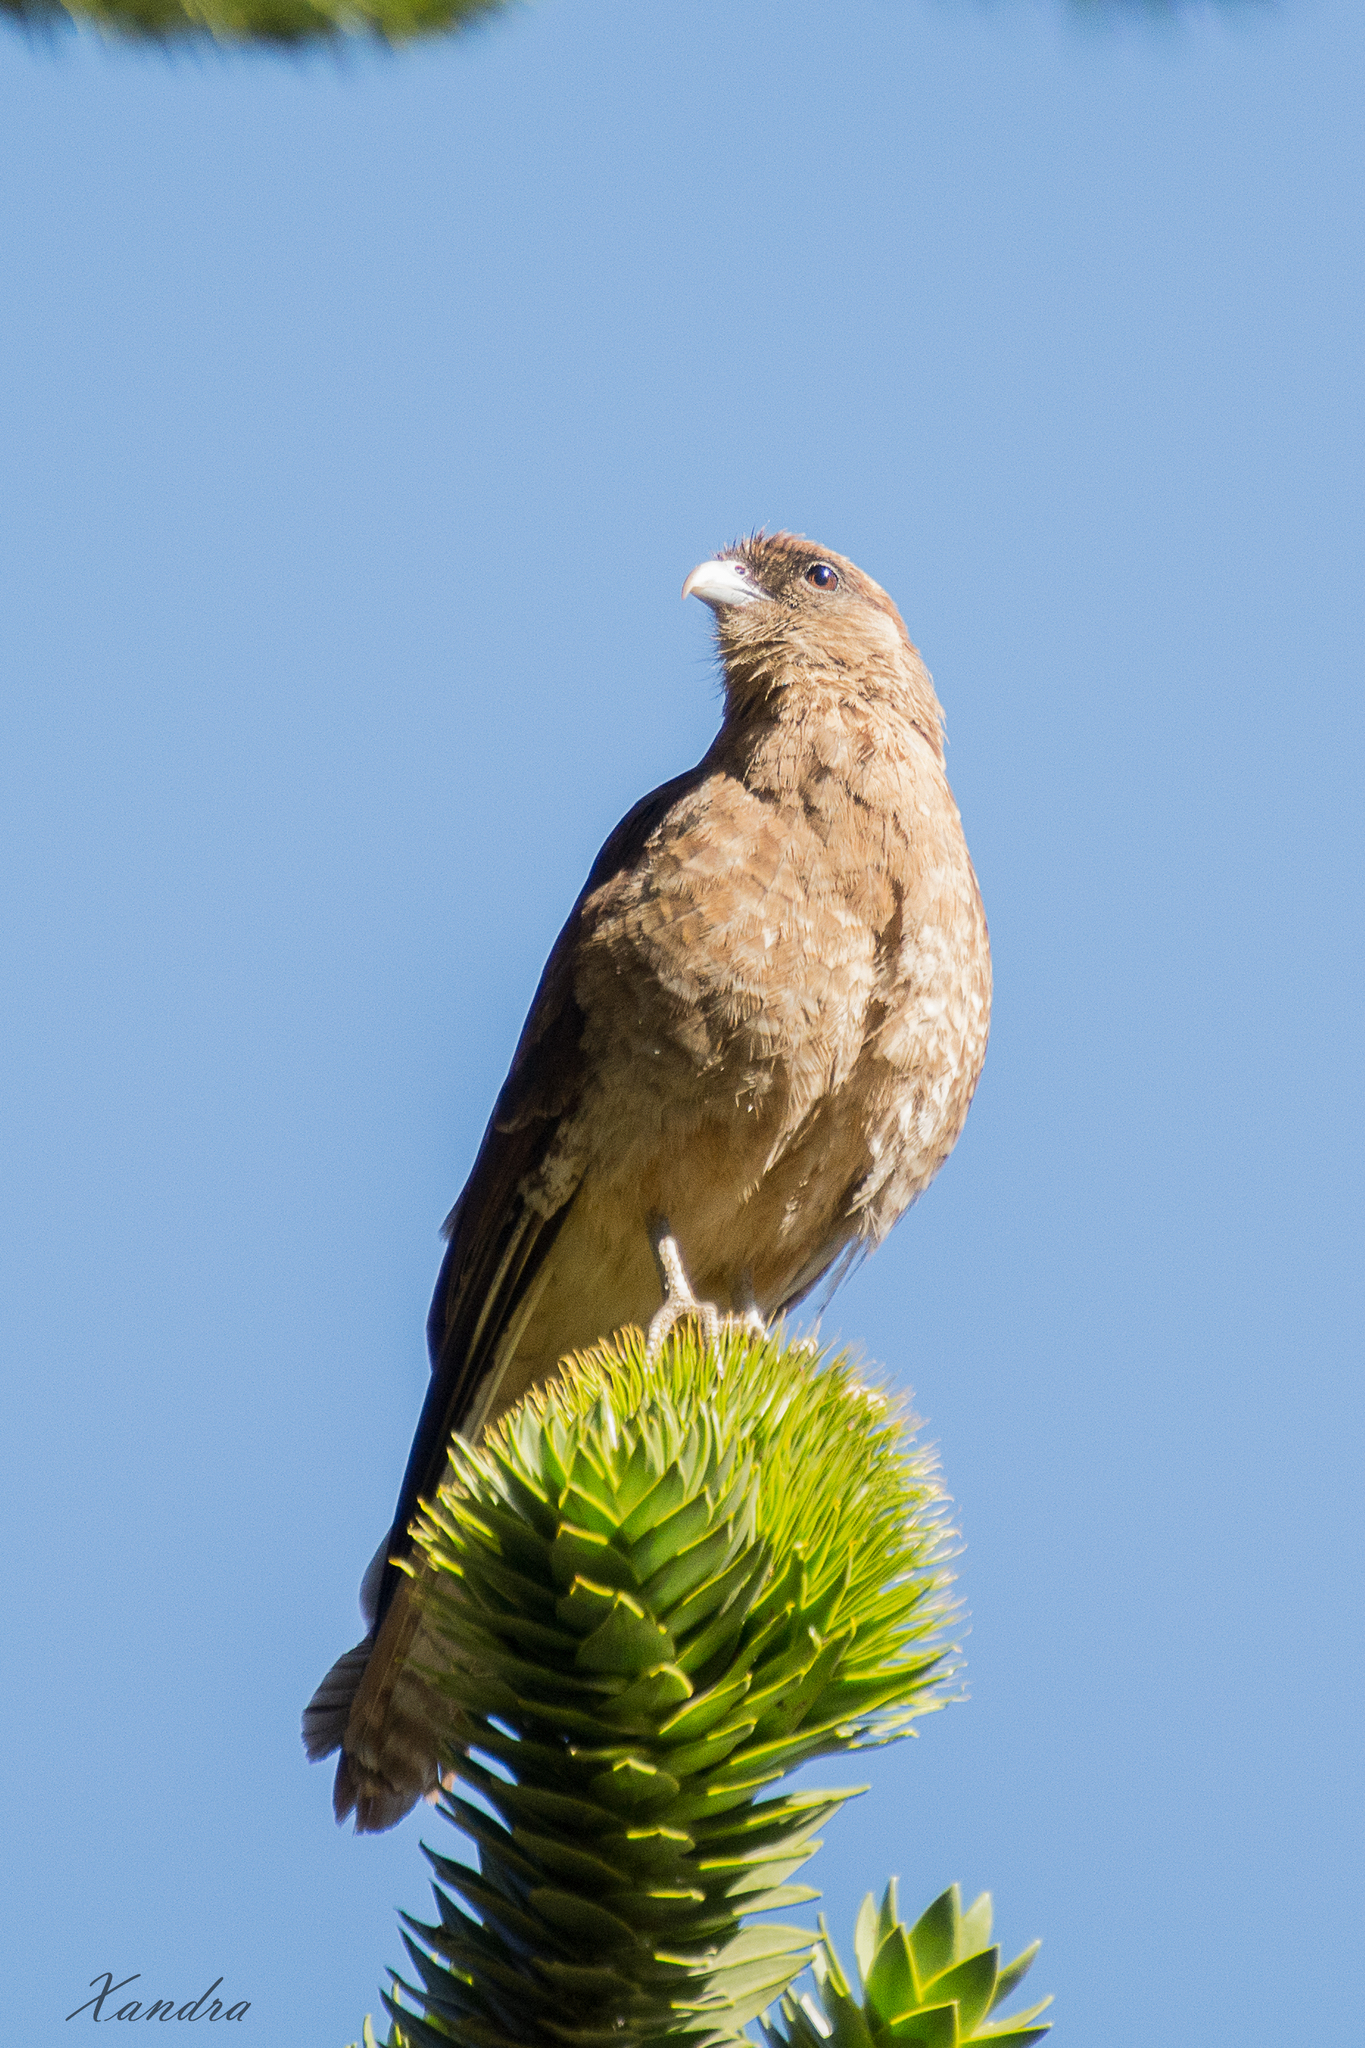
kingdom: Animalia
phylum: Chordata
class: Aves
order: Falconiformes
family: Falconidae
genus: Daptrius
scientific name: Daptrius
